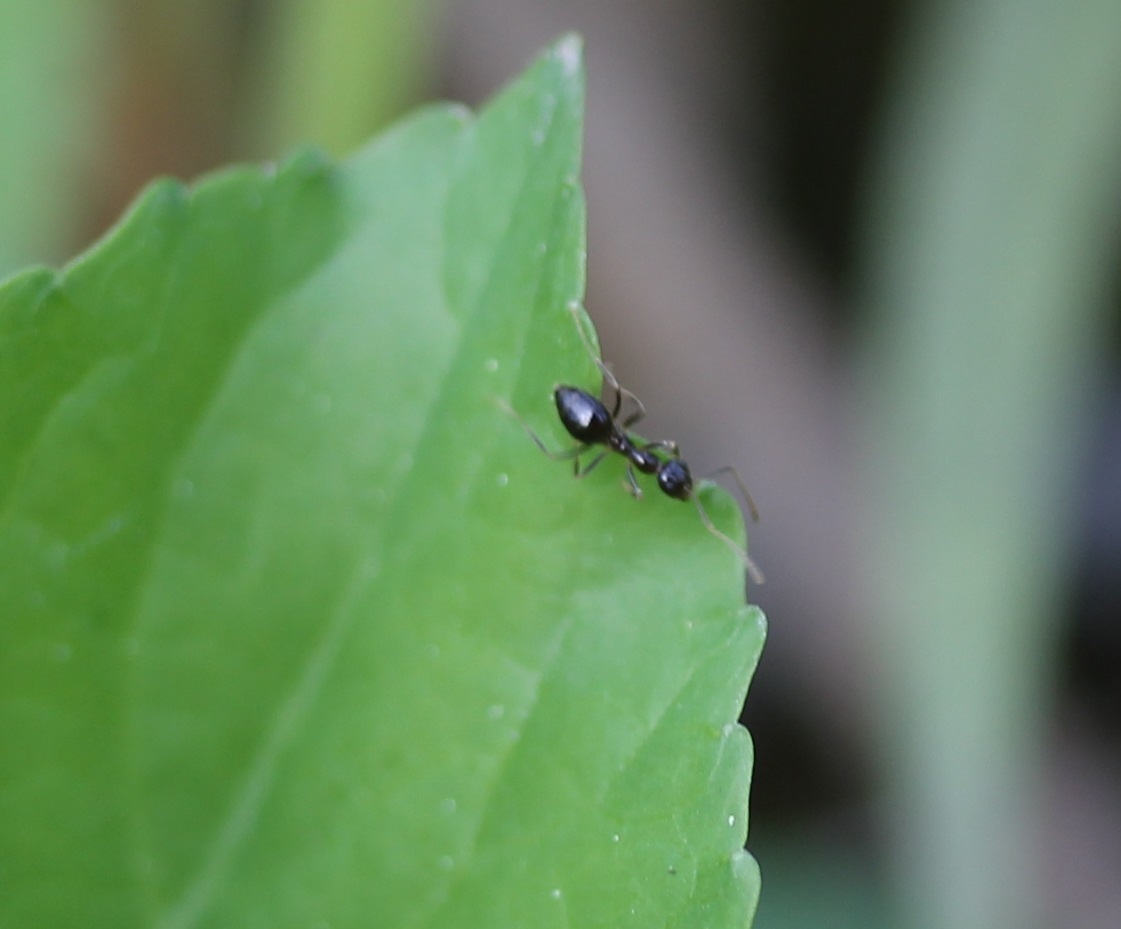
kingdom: Animalia
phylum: Arthropoda
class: Insecta
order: Hymenoptera
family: Formicidae
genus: Prenolepis
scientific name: Prenolepis imparis
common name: Small honey ant
